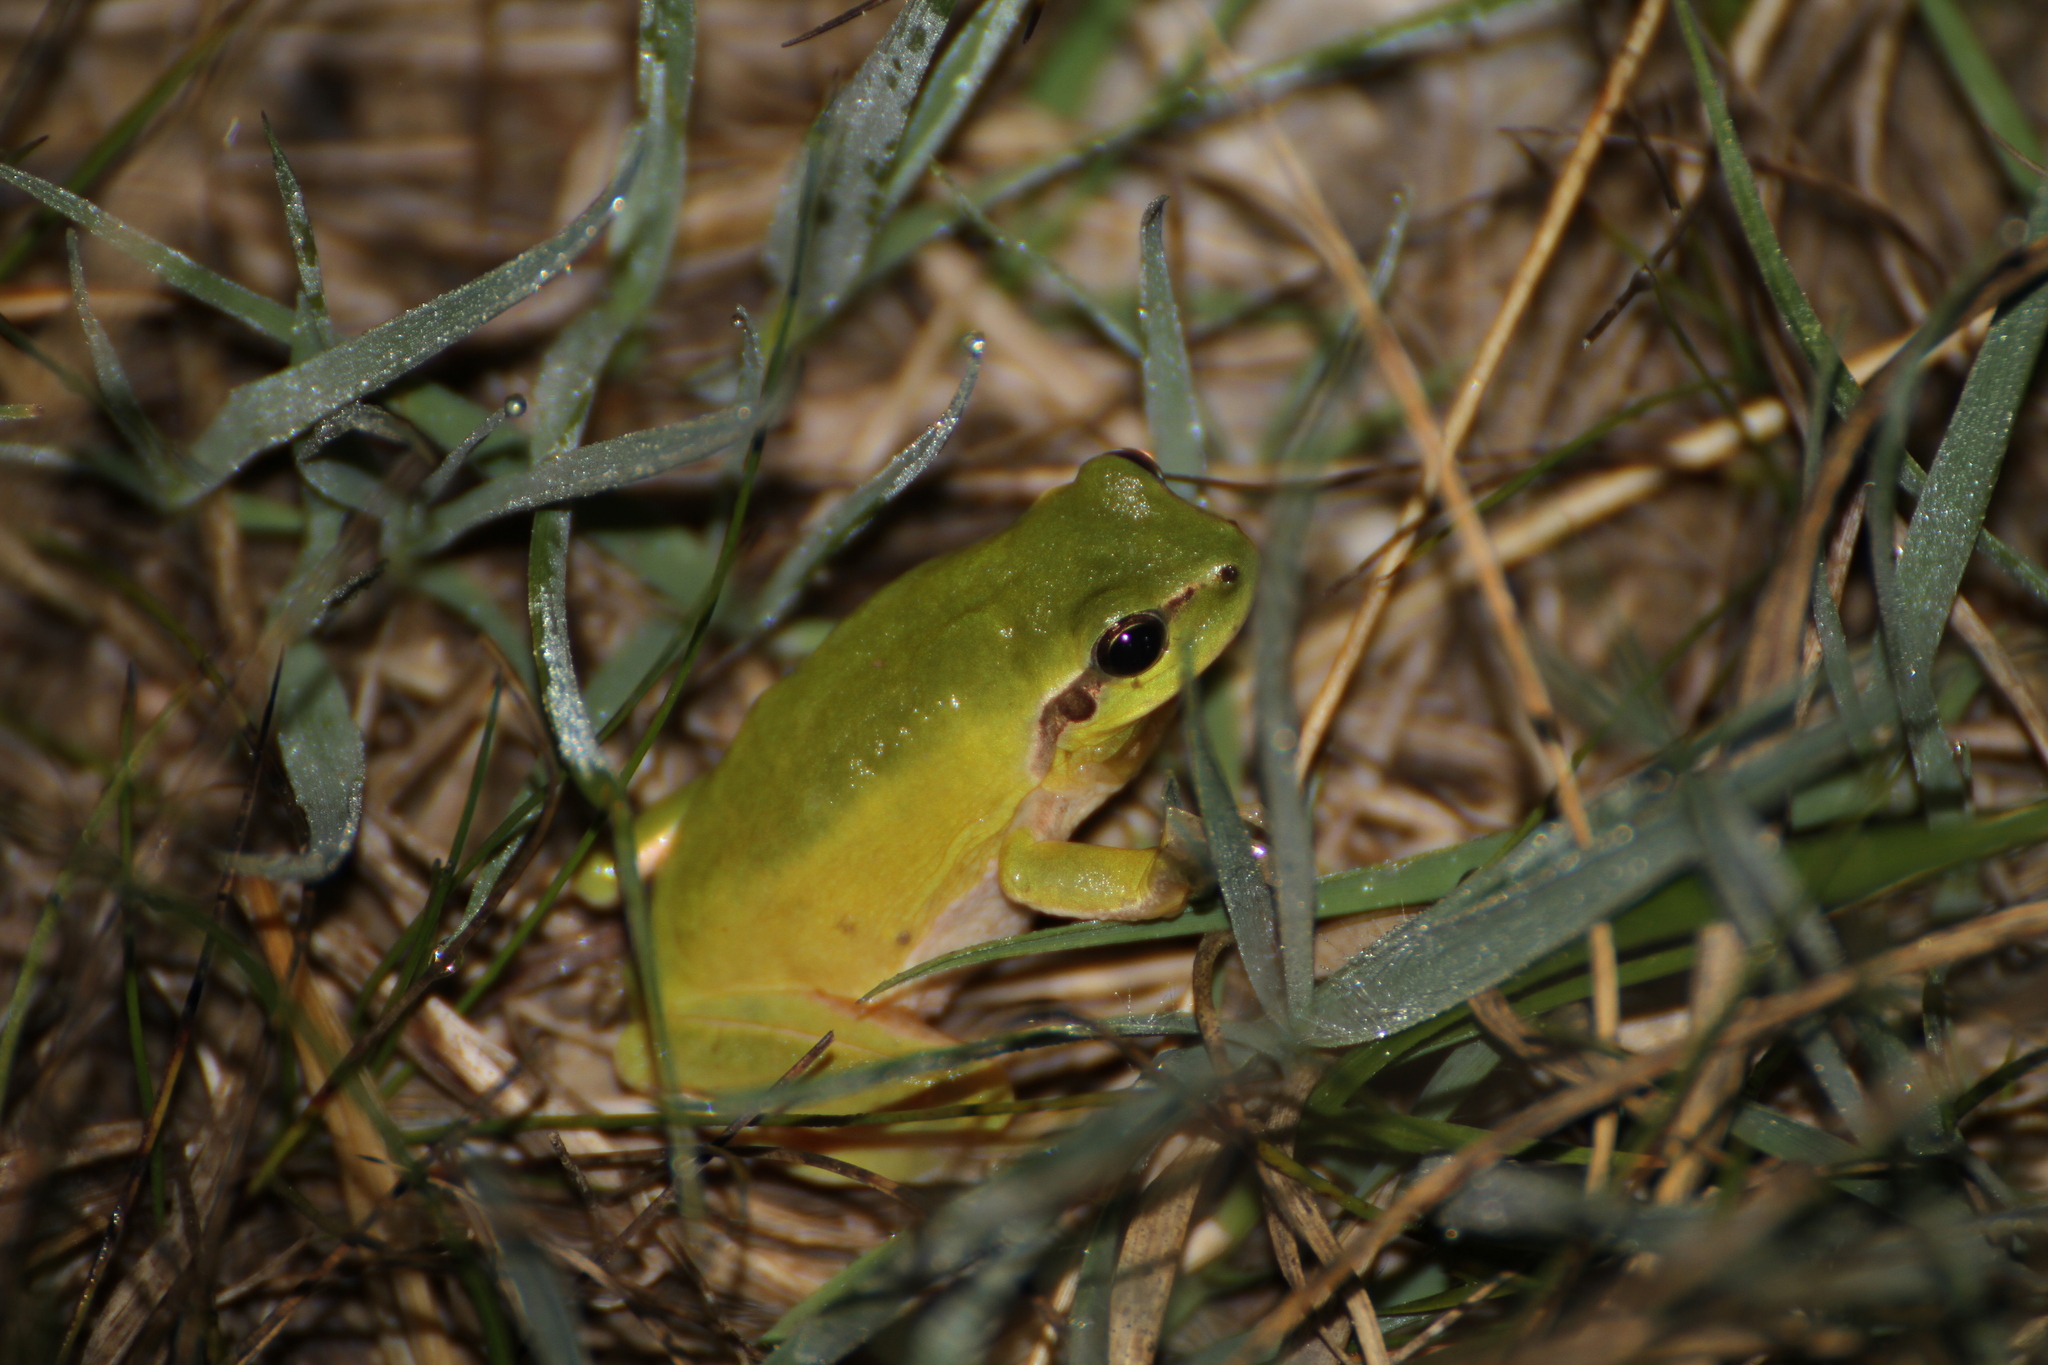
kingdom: Animalia
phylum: Chordata
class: Amphibia
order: Anura
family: Hylidae
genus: Hyla
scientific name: Hyla meridionalis
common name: Stripeless tree frog
